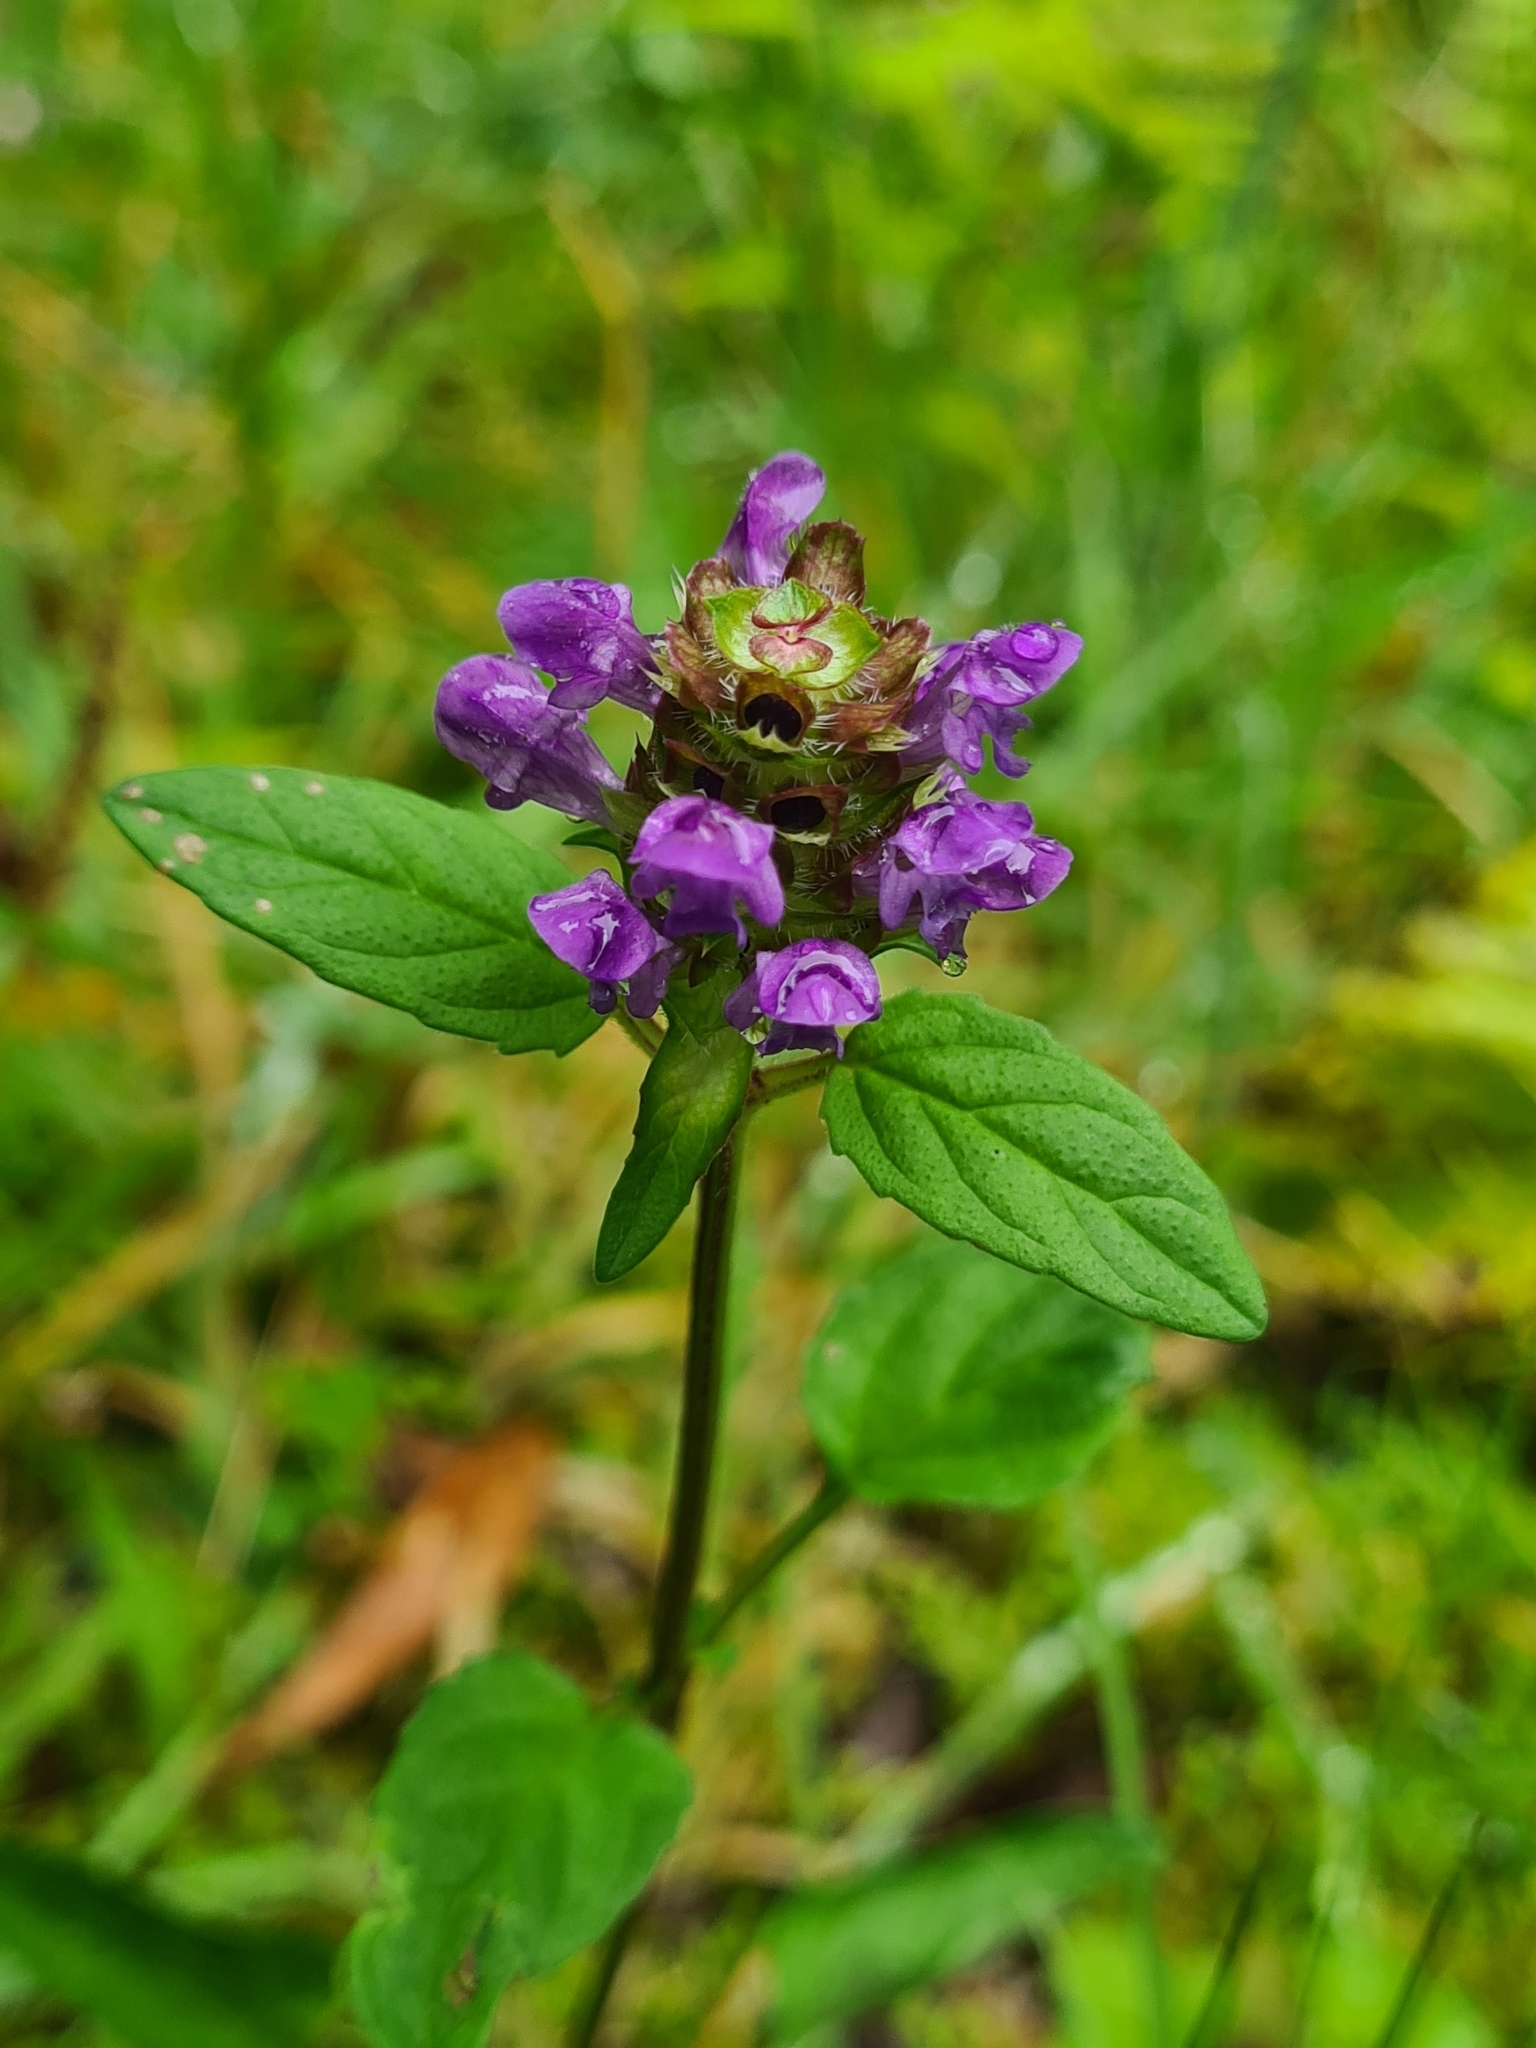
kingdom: Plantae
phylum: Tracheophyta
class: Magnoliopsida
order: Lamiales
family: Lamiaceae
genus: Prunella
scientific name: Prunella vulgaris
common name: Heal-all
